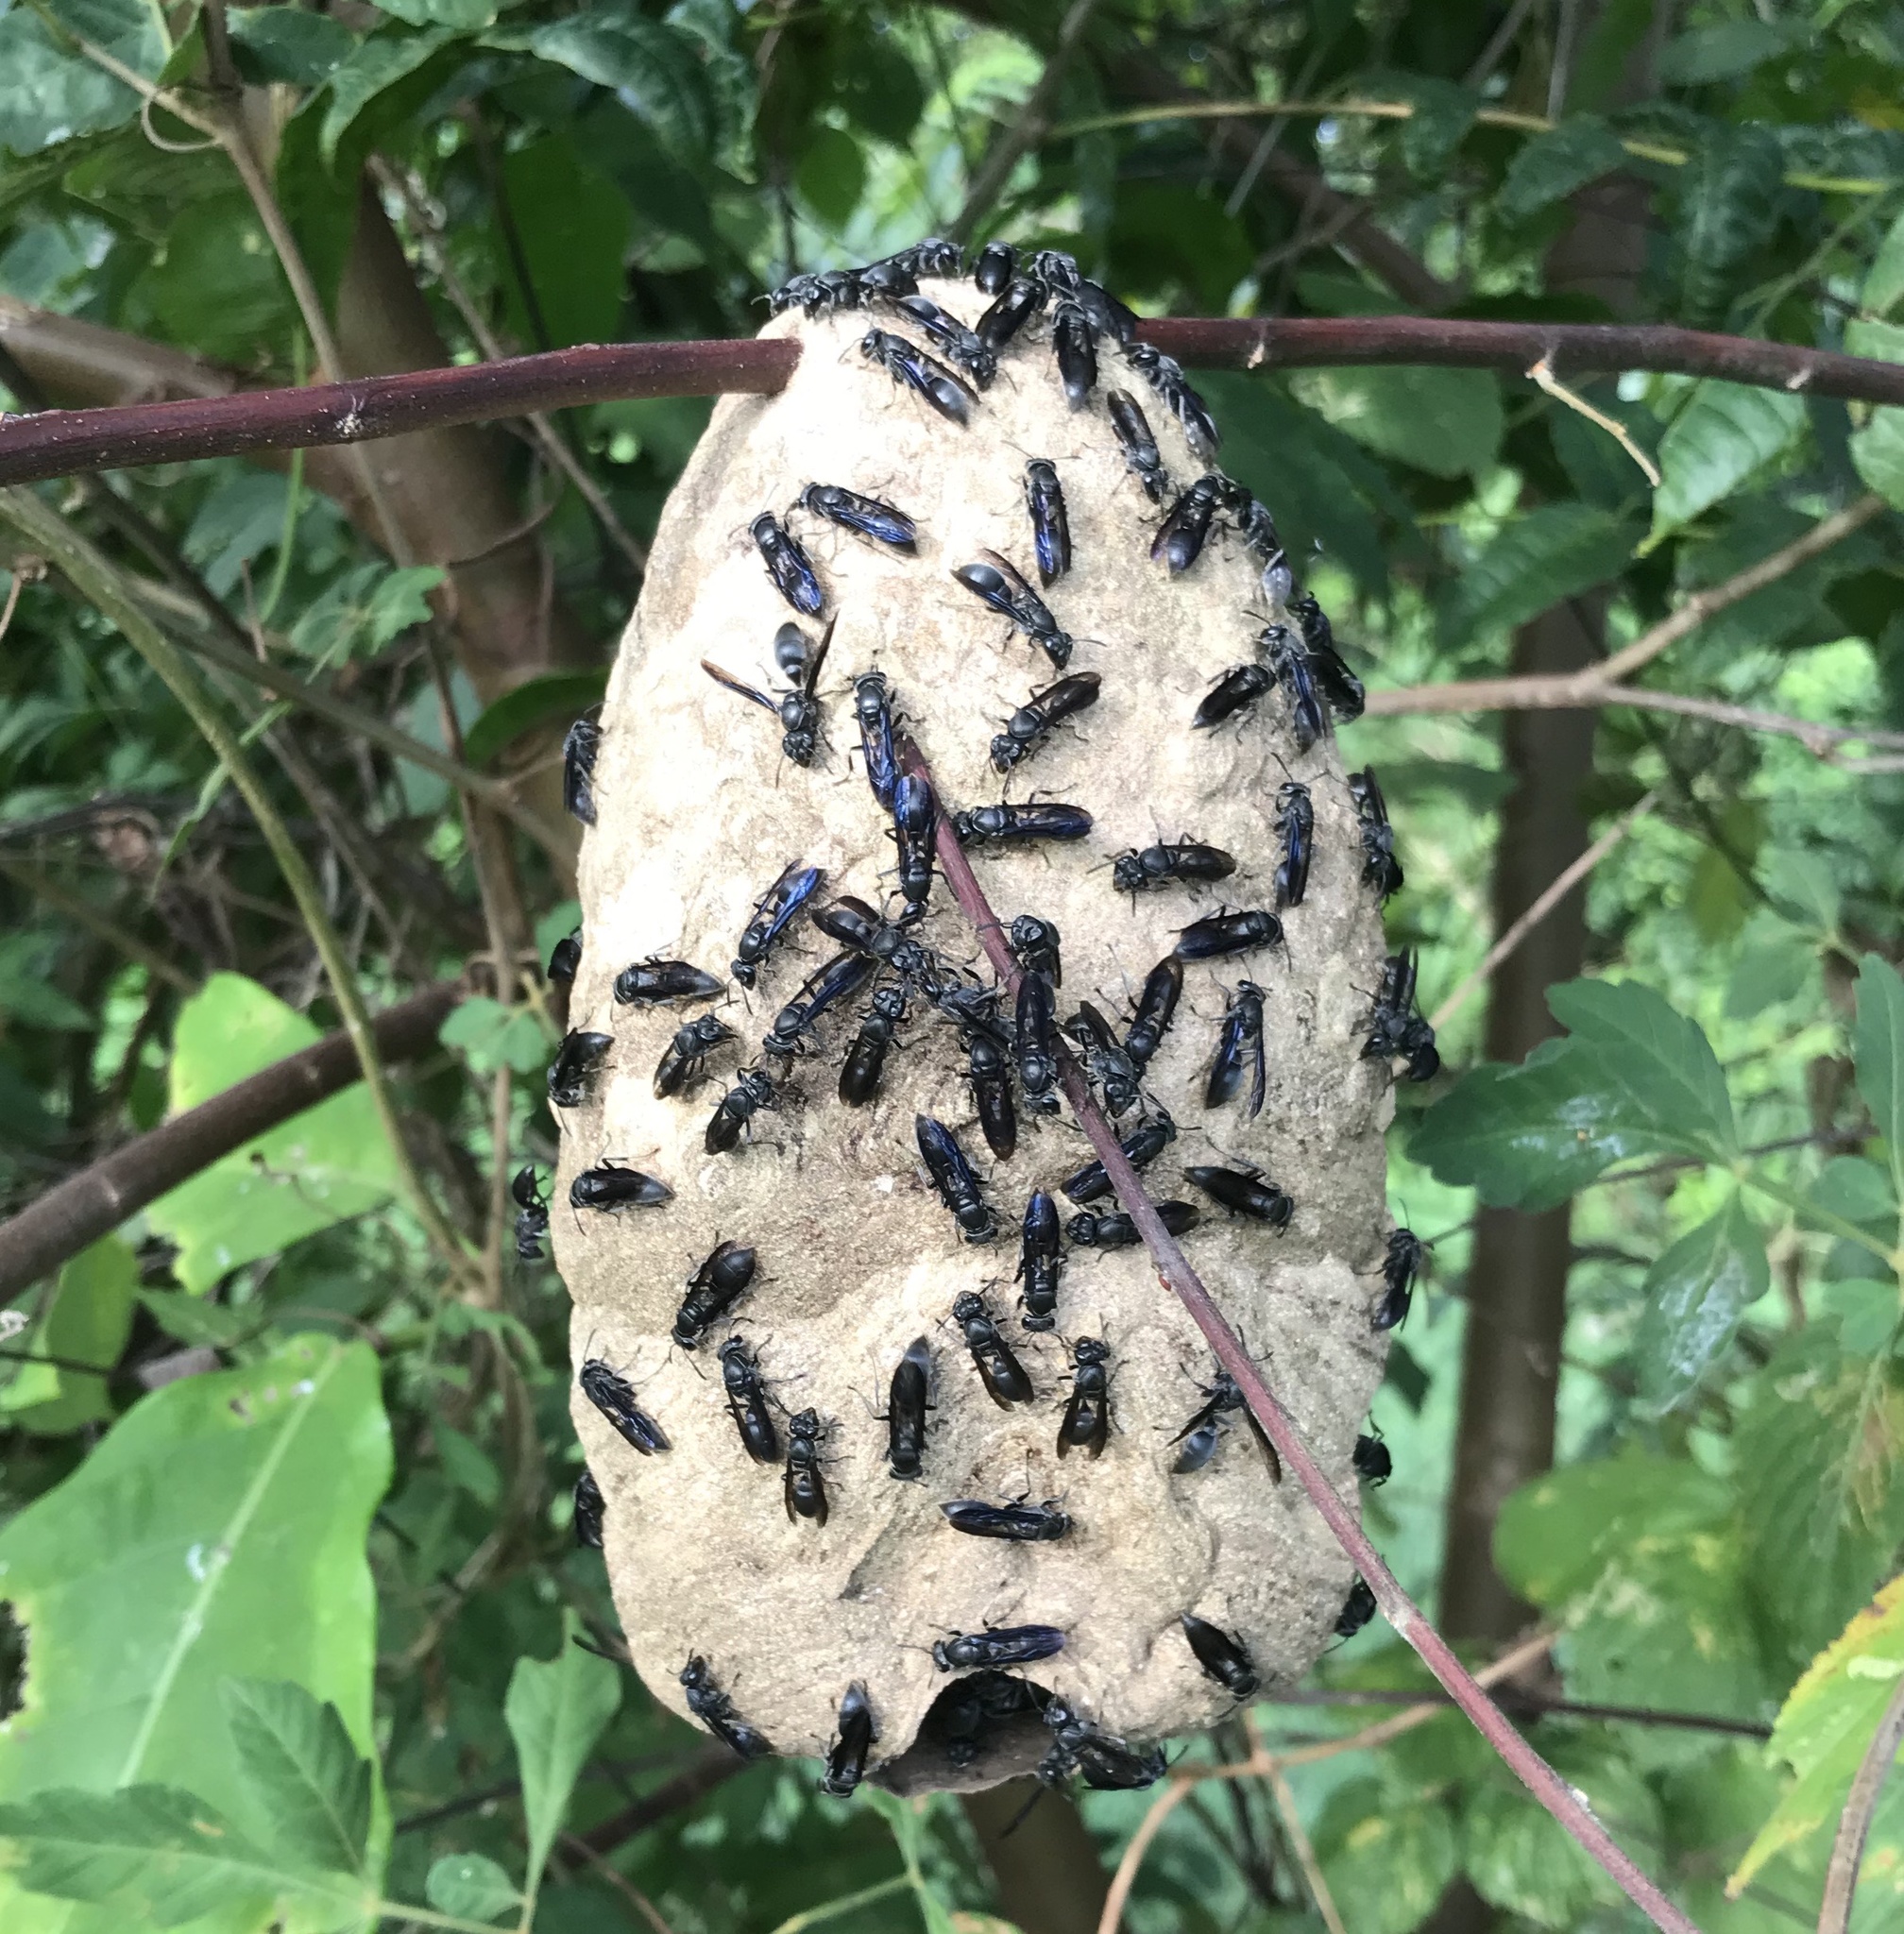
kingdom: Animalia
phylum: Arthropoda
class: Insecta
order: Hymenoptera
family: Eumenidae
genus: Polybia
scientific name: Polybia simillima
